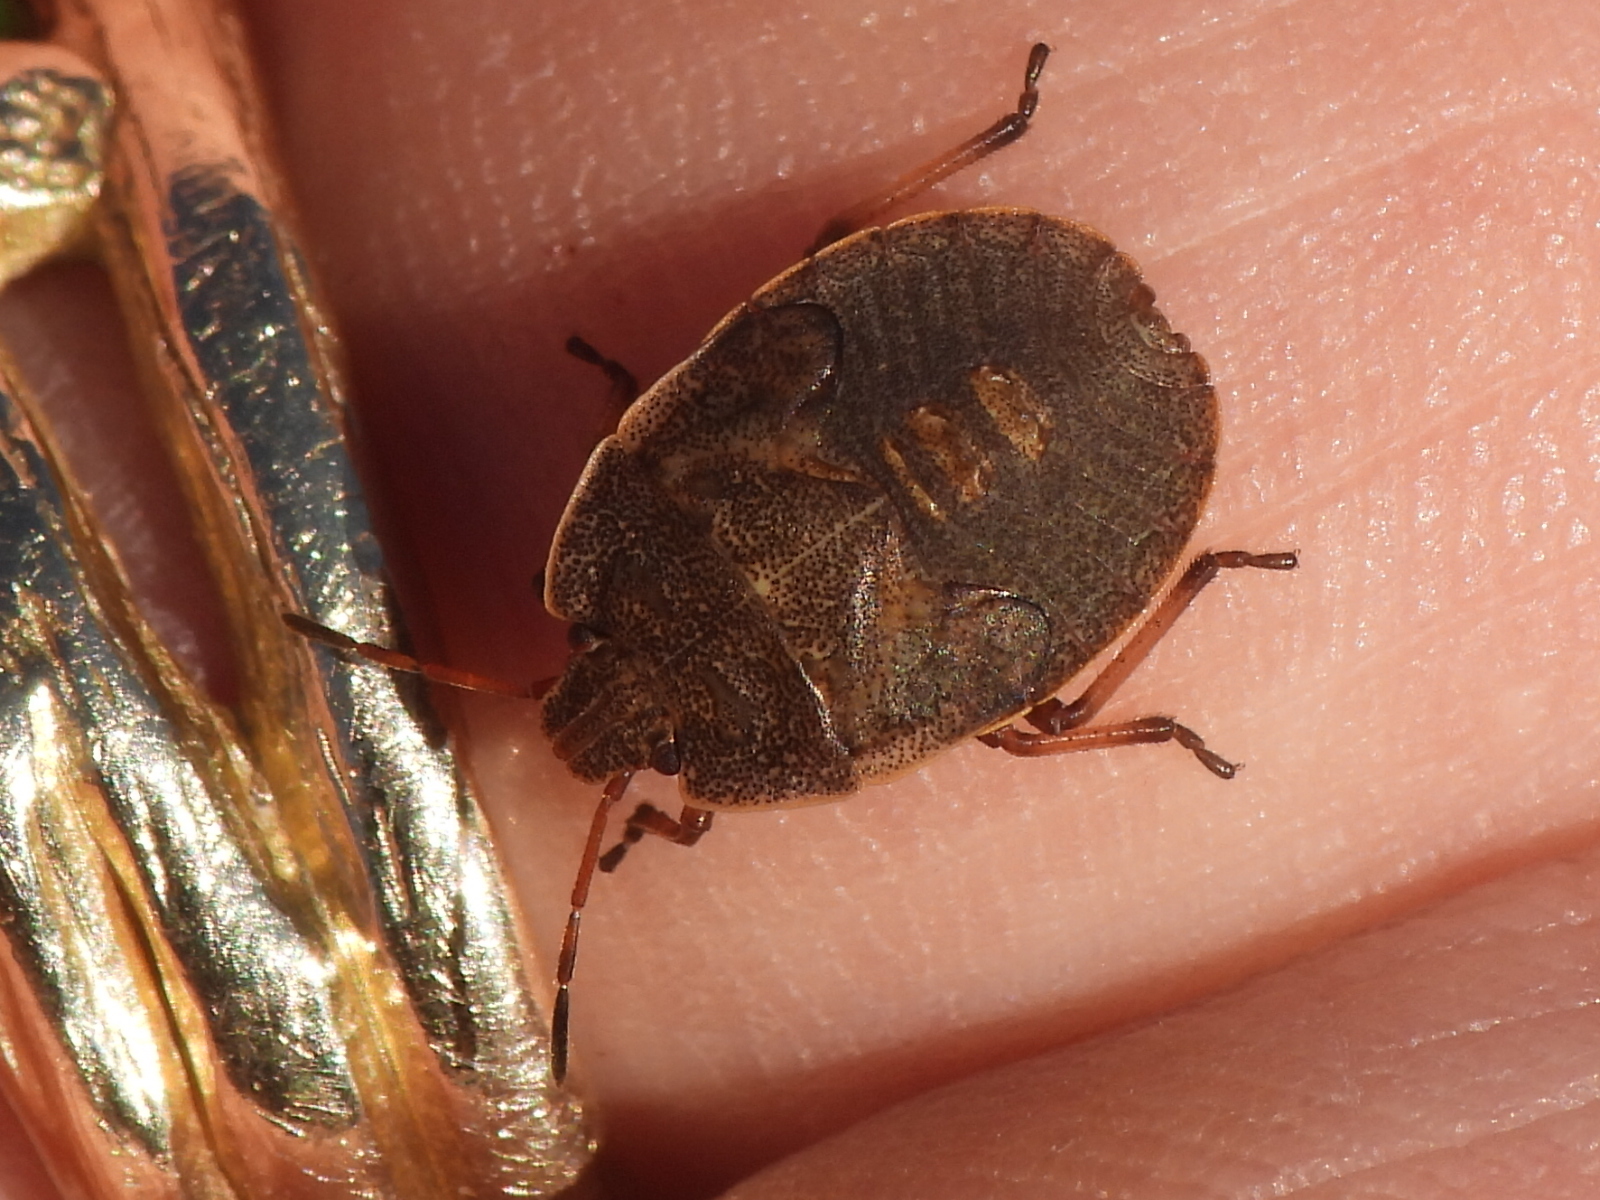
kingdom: Animalia
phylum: Arthropoda
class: Insecta
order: Hemiptera
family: Pentatomidae
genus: Menecles
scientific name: Menecles insertus
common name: Elf shoe stink bug
